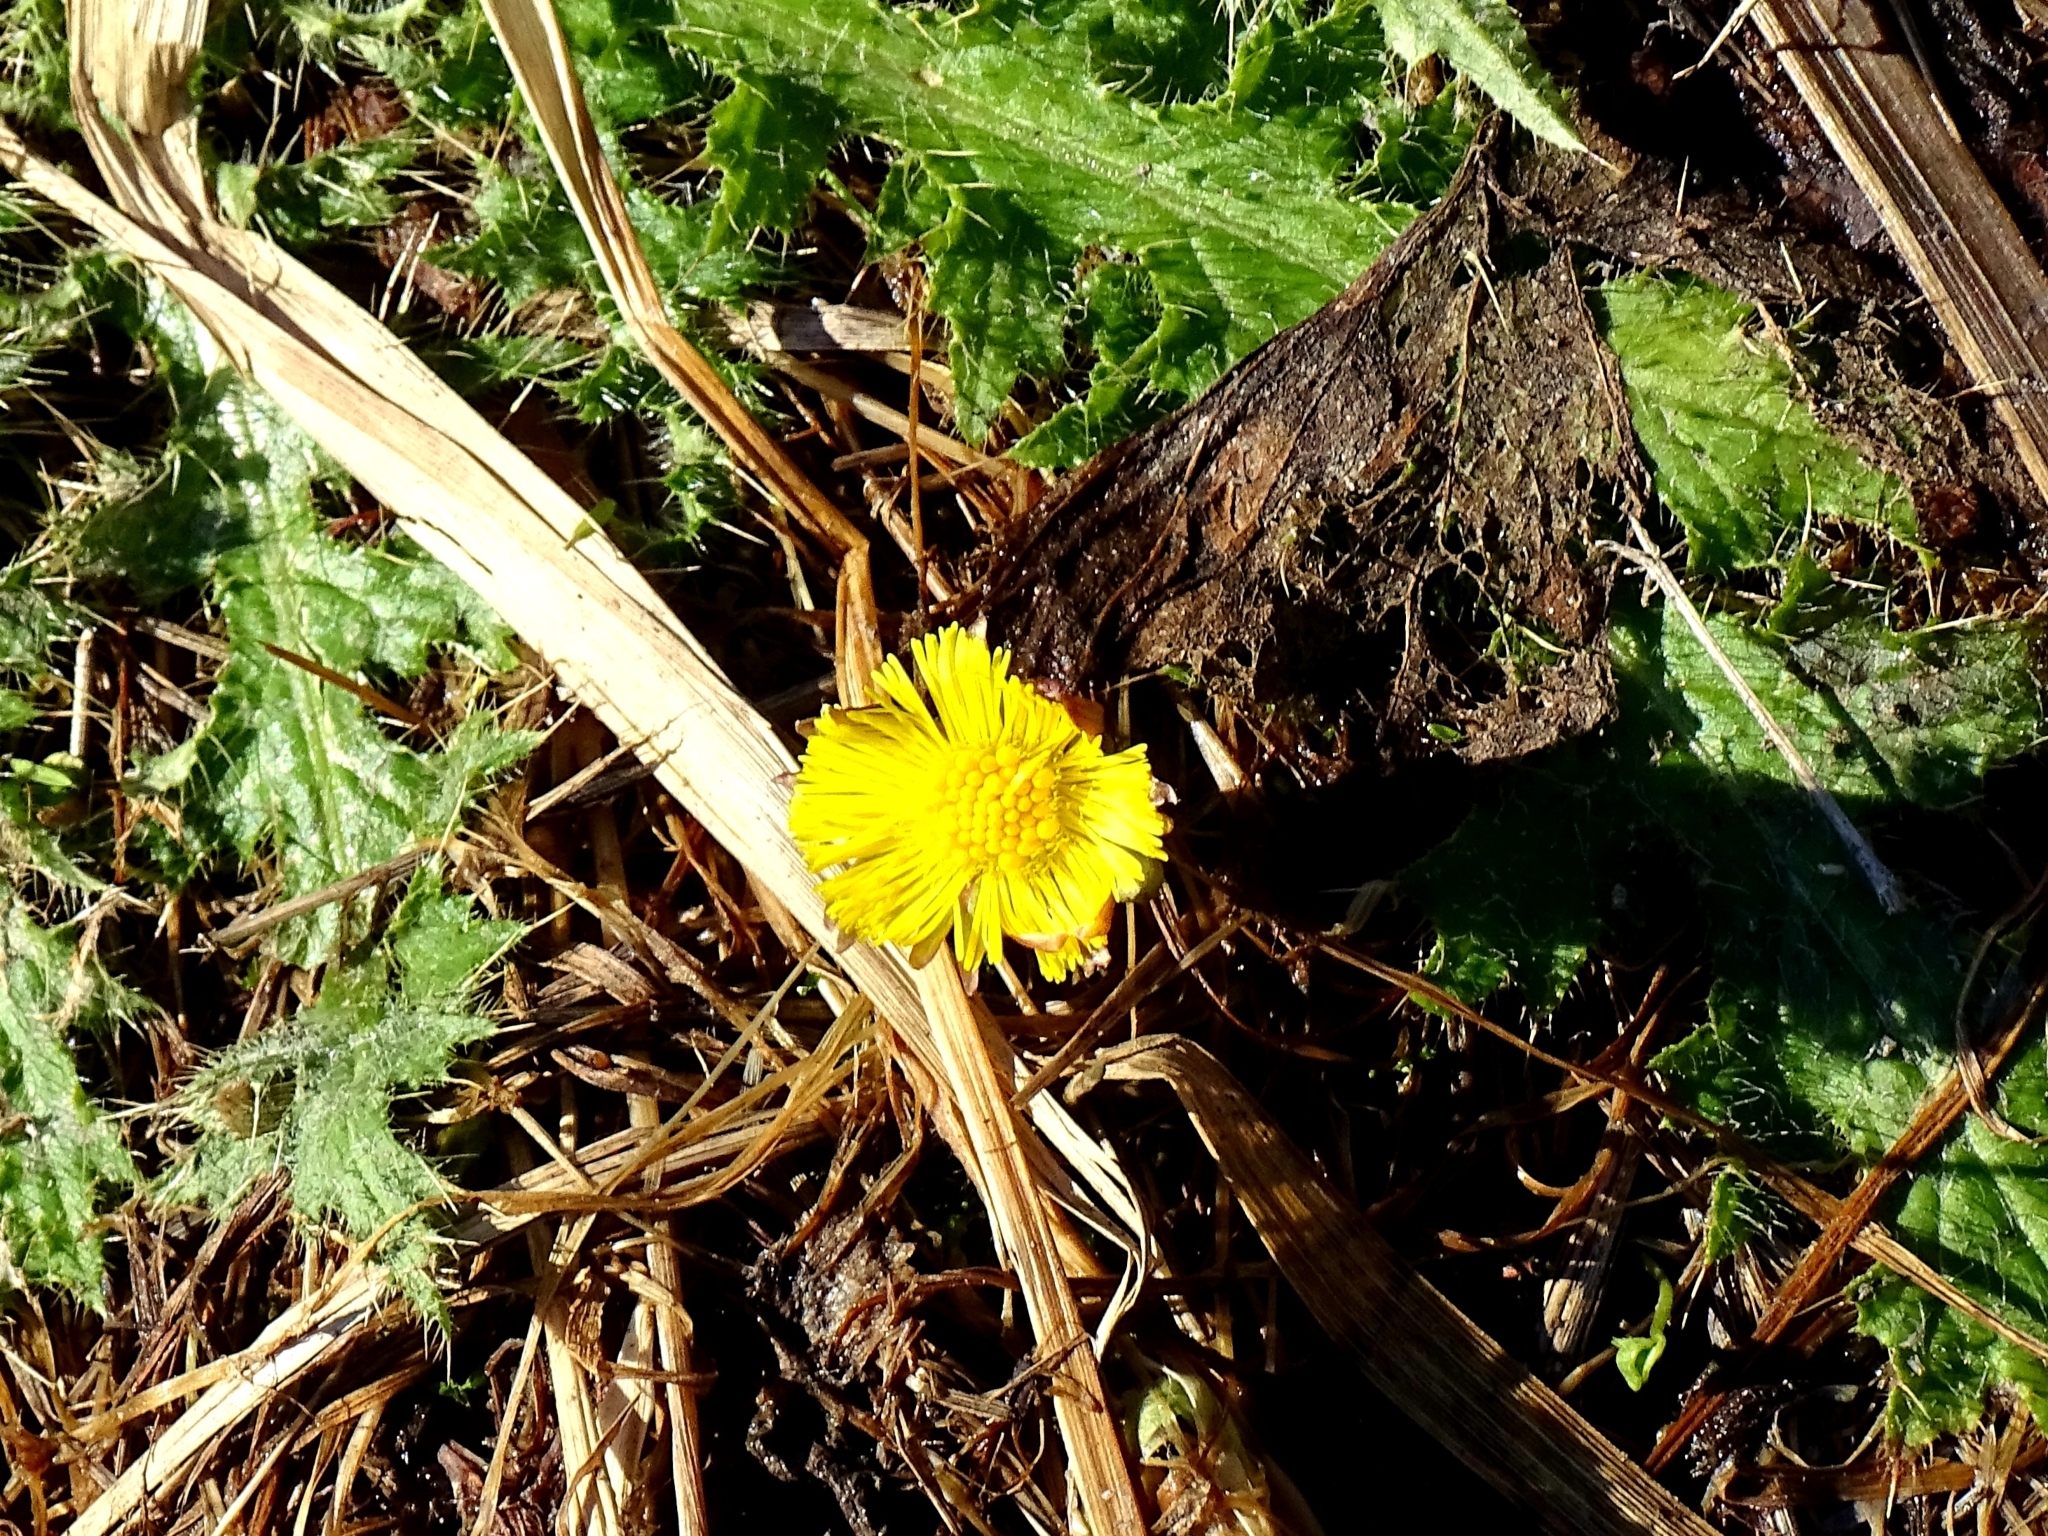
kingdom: Plantae
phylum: Tracheophyta
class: Magnoliopsida
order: Asterales
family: Asteraceae
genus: Tussilago
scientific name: Tussilago farfara
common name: Coltsfoot
